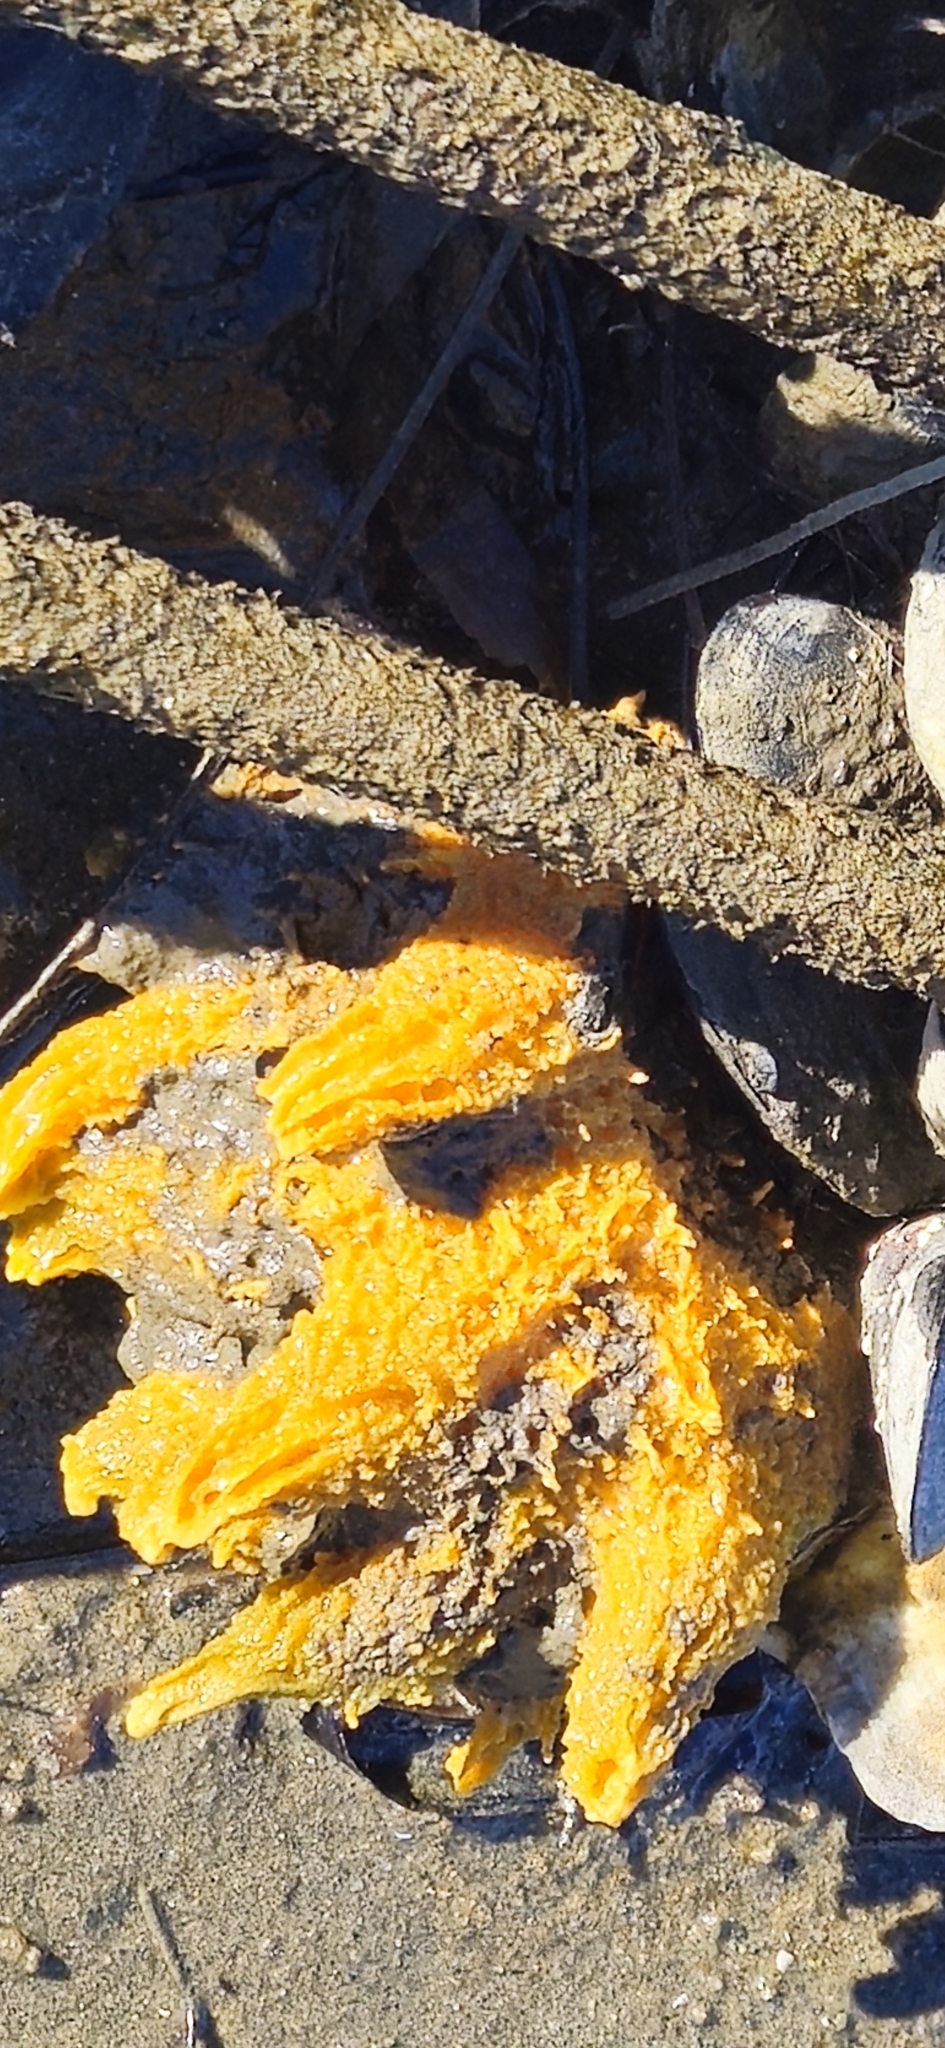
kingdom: Animalia
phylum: Porifera
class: Demospongiae
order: Suberitida
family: Halichondriidae
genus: Hymeniacidon
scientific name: Hymeniacidon perlevis
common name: Crumb-of-bread sponge
